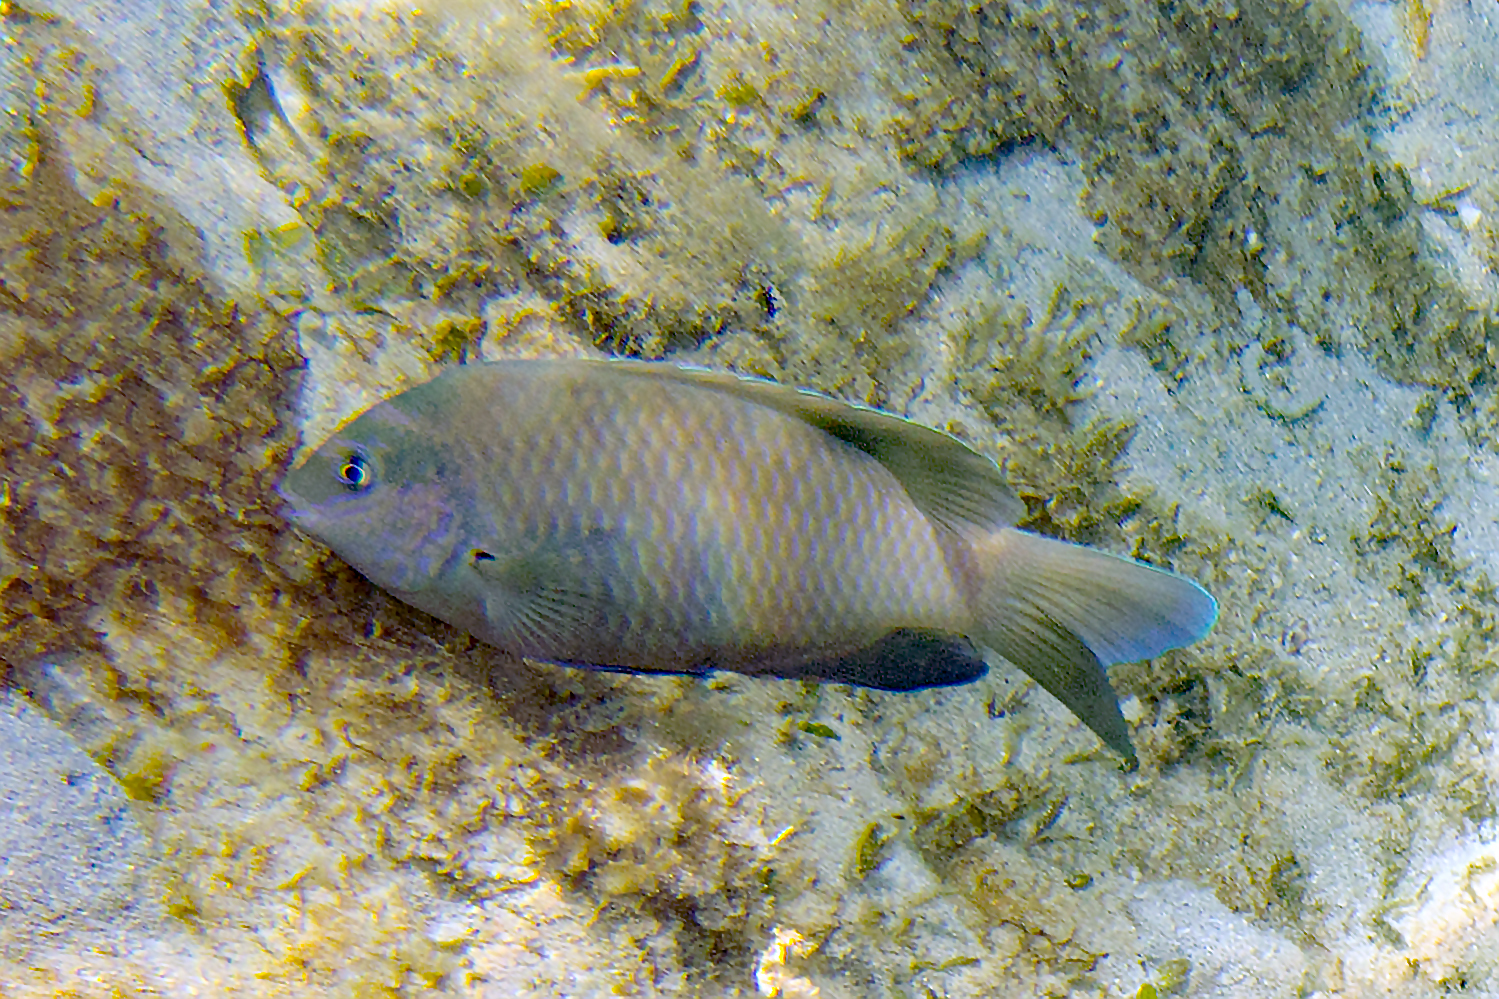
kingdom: Animalia
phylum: Chordata
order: Perciformes
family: Pomacentridae
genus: Dischistodus
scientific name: Dischistodus perspicillatus
